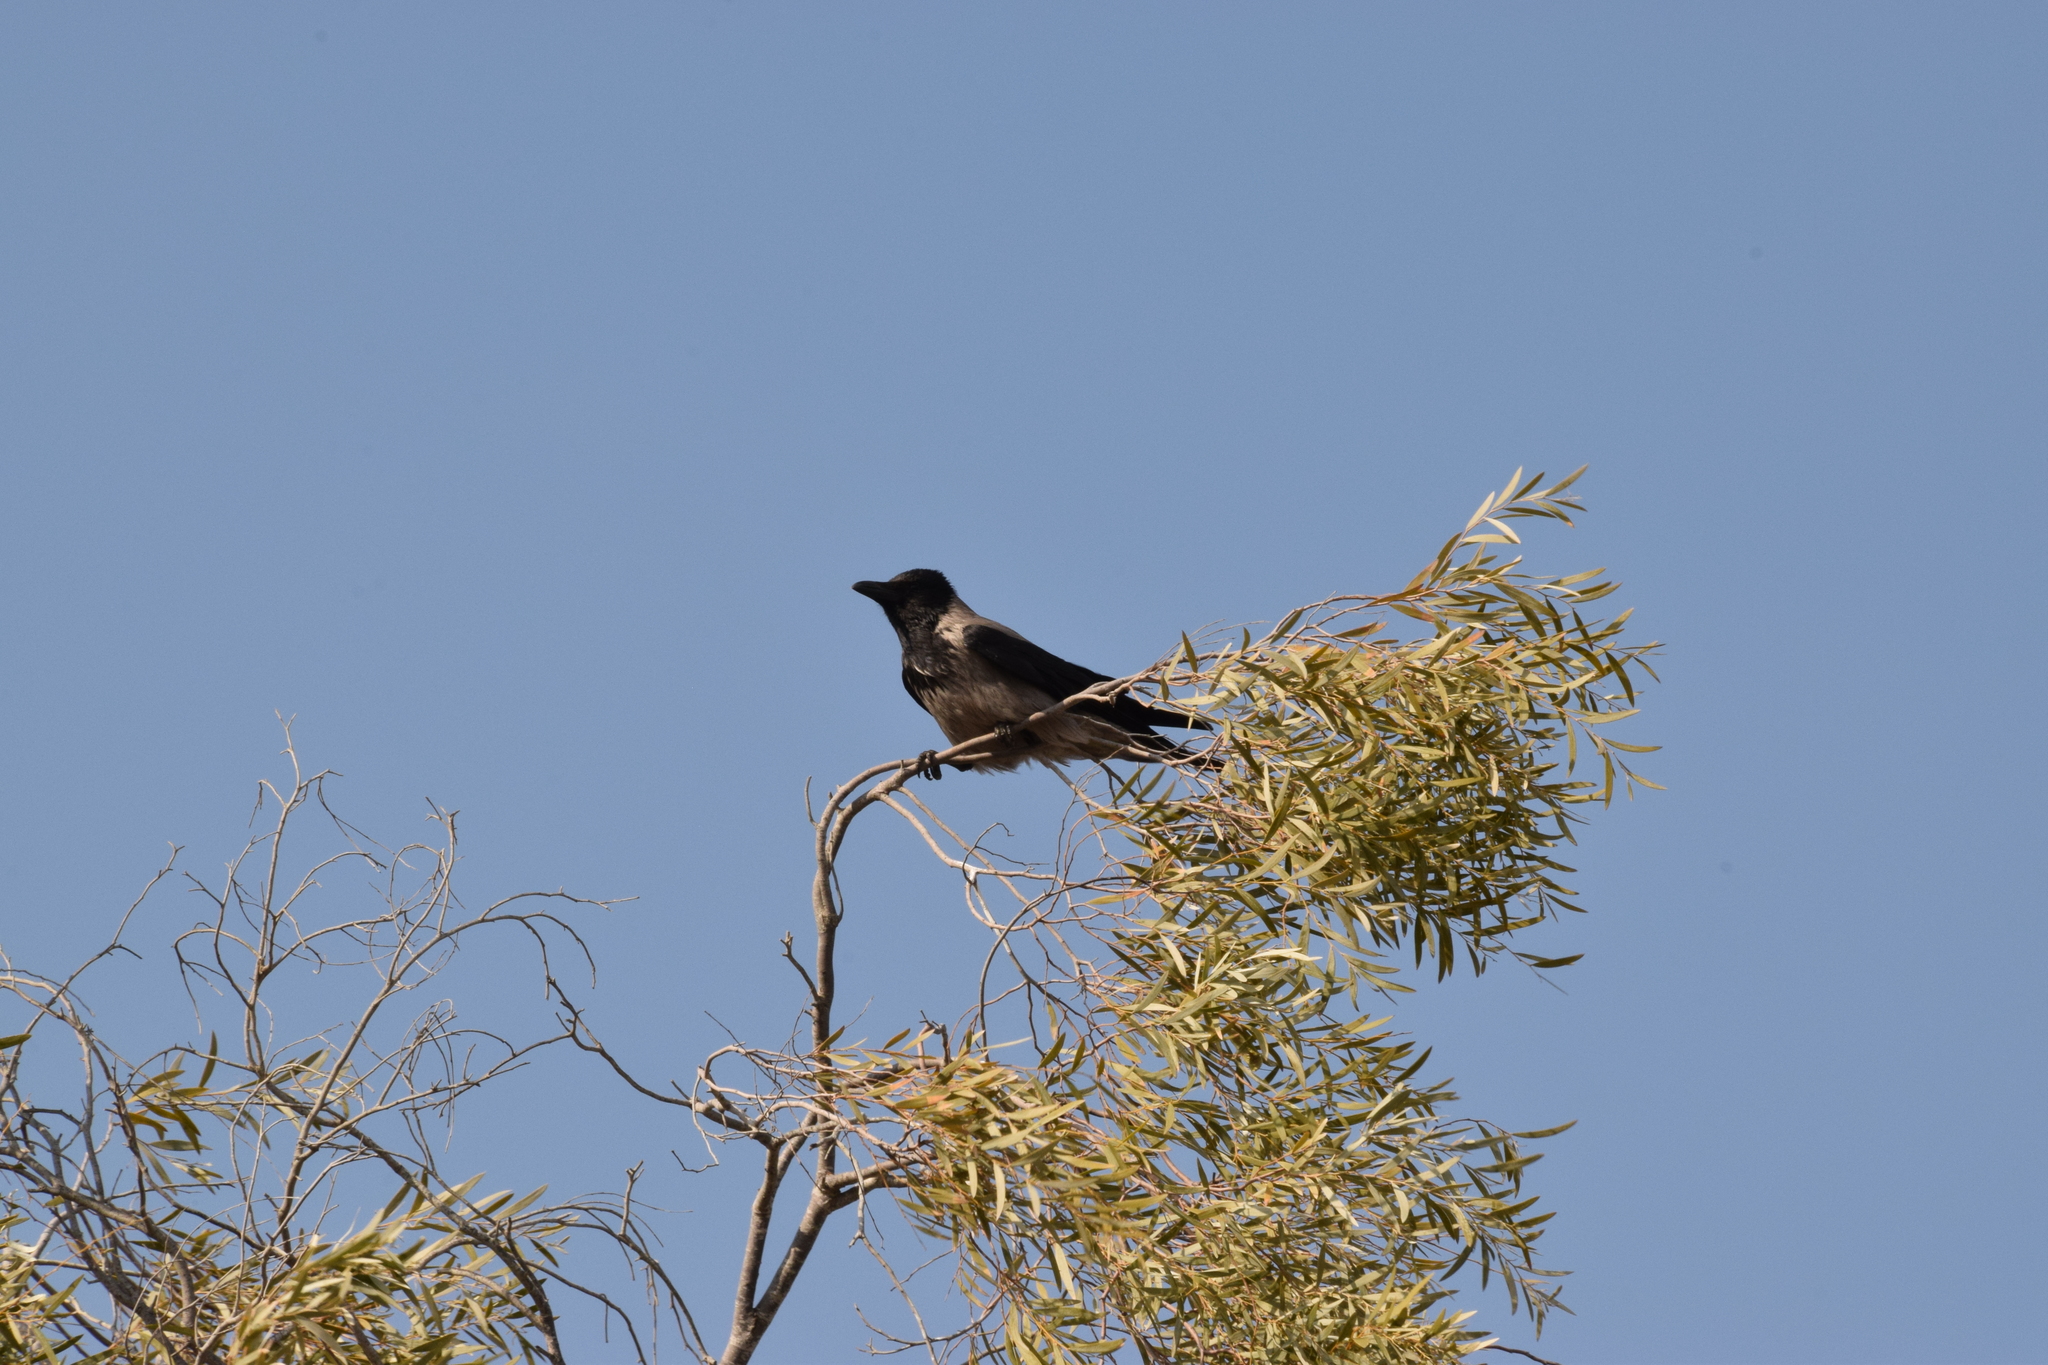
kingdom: Animalia
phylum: Chordata
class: Aves
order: Passeriformes
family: Corvidae
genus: Corvus
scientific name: Corvus cornix
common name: Hooded crow
